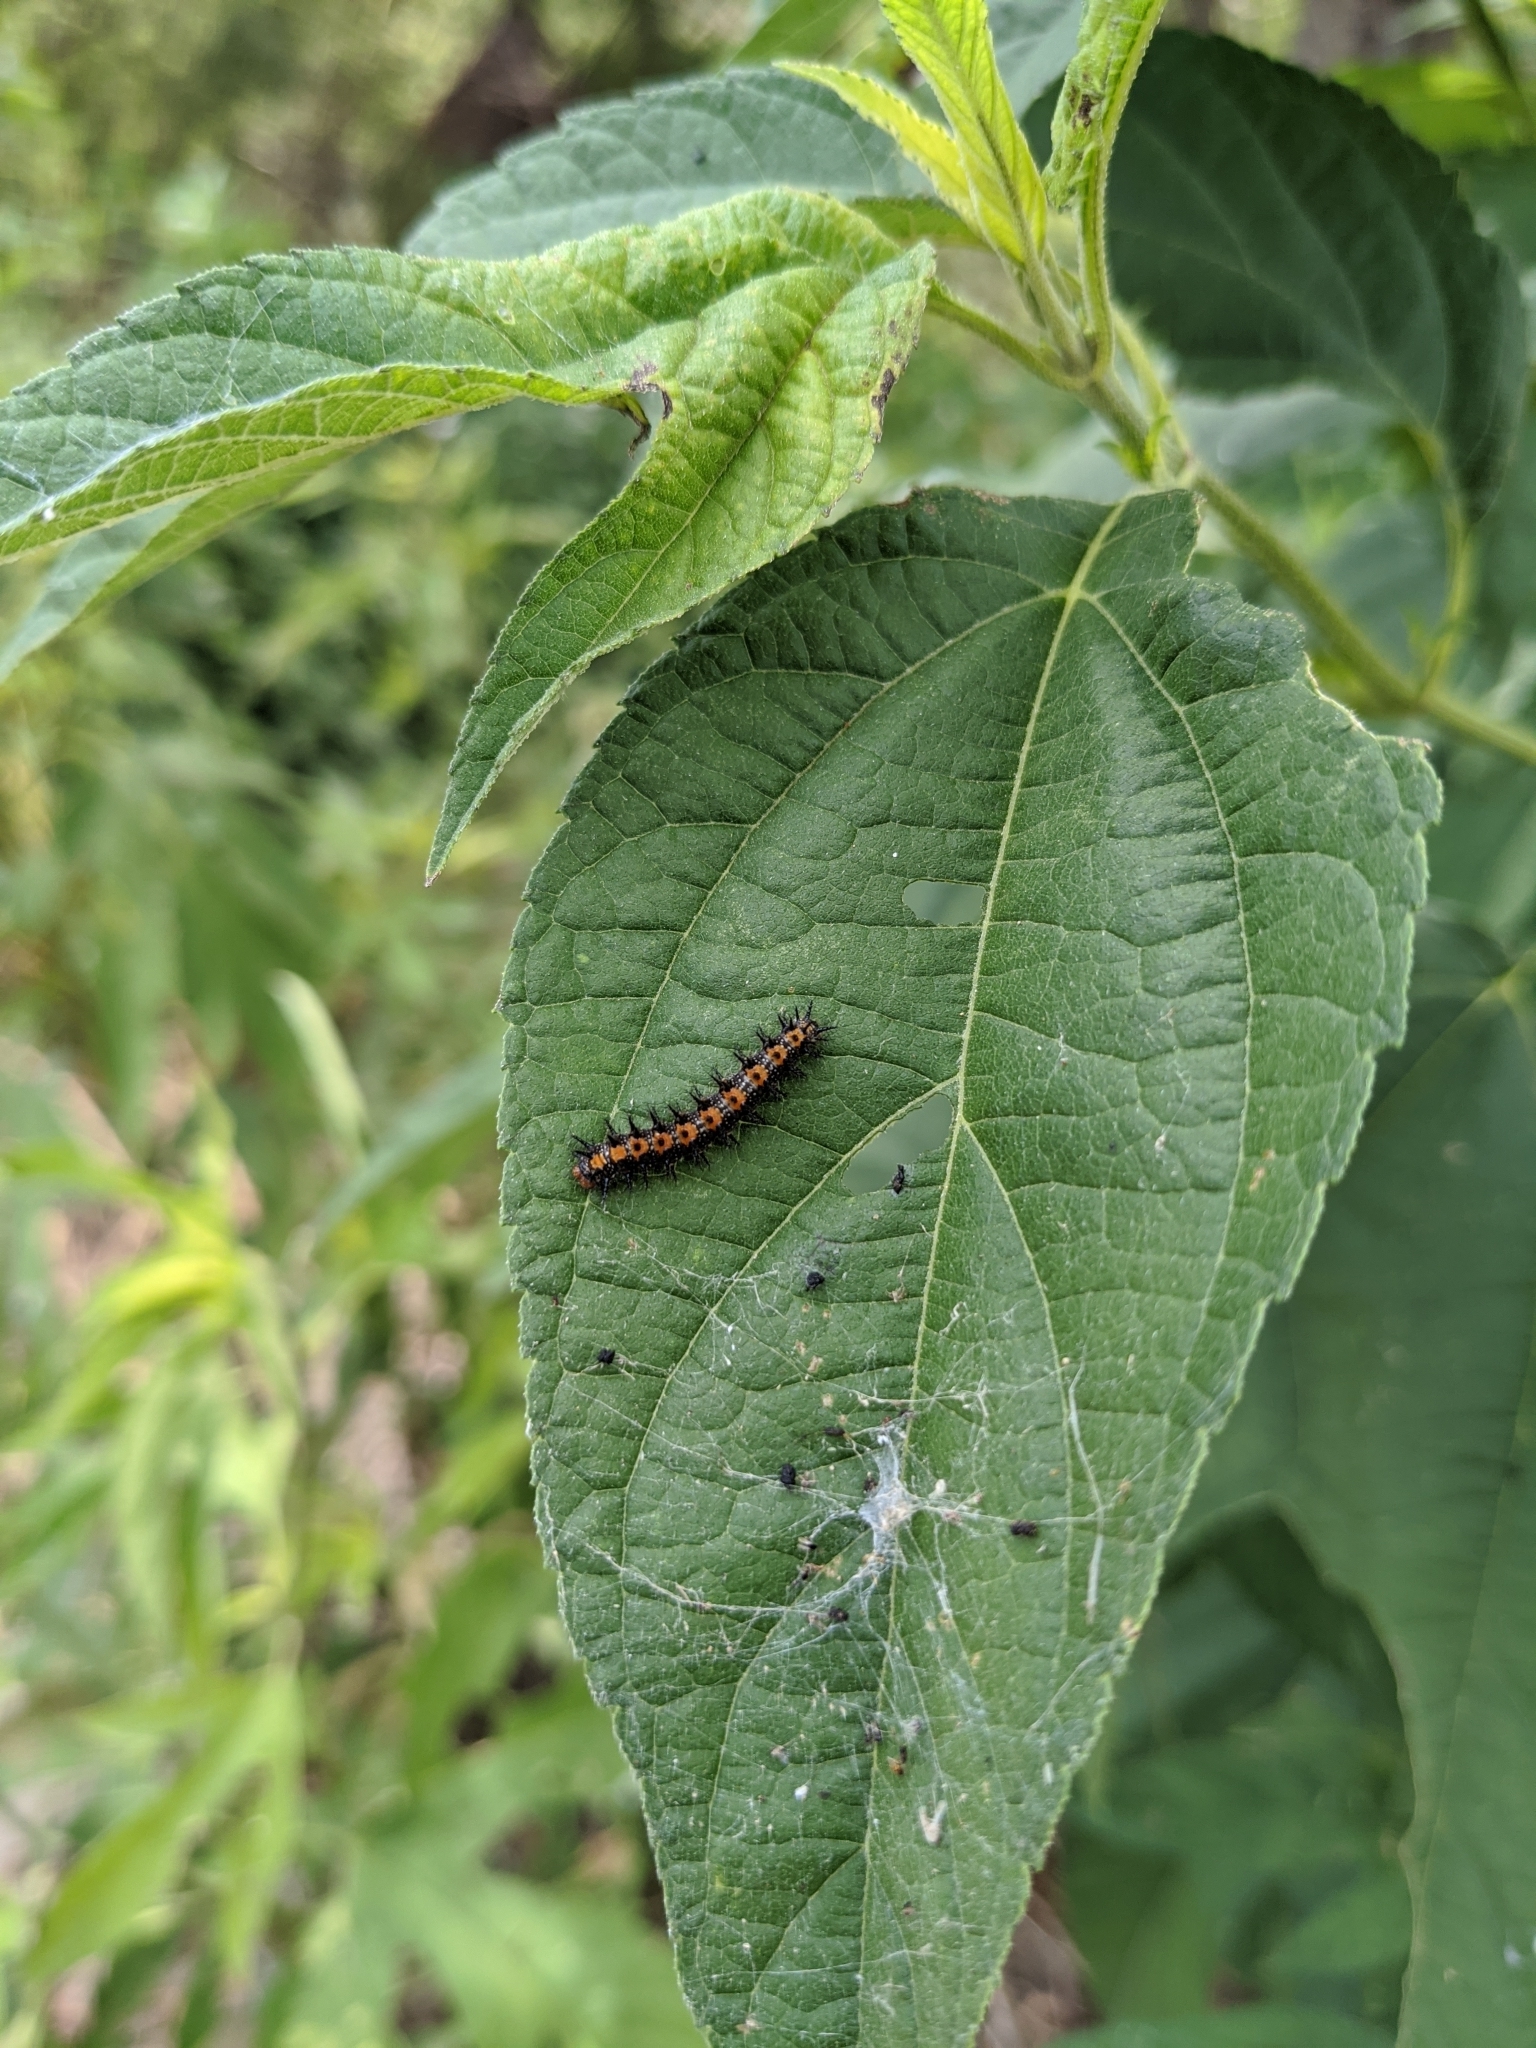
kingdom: Animalia
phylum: Arthropoda
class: Insecta
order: Lepidoptera
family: Nymphalidae
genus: Chlosyne
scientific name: Chlosyne lacinia
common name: Bordered patch
